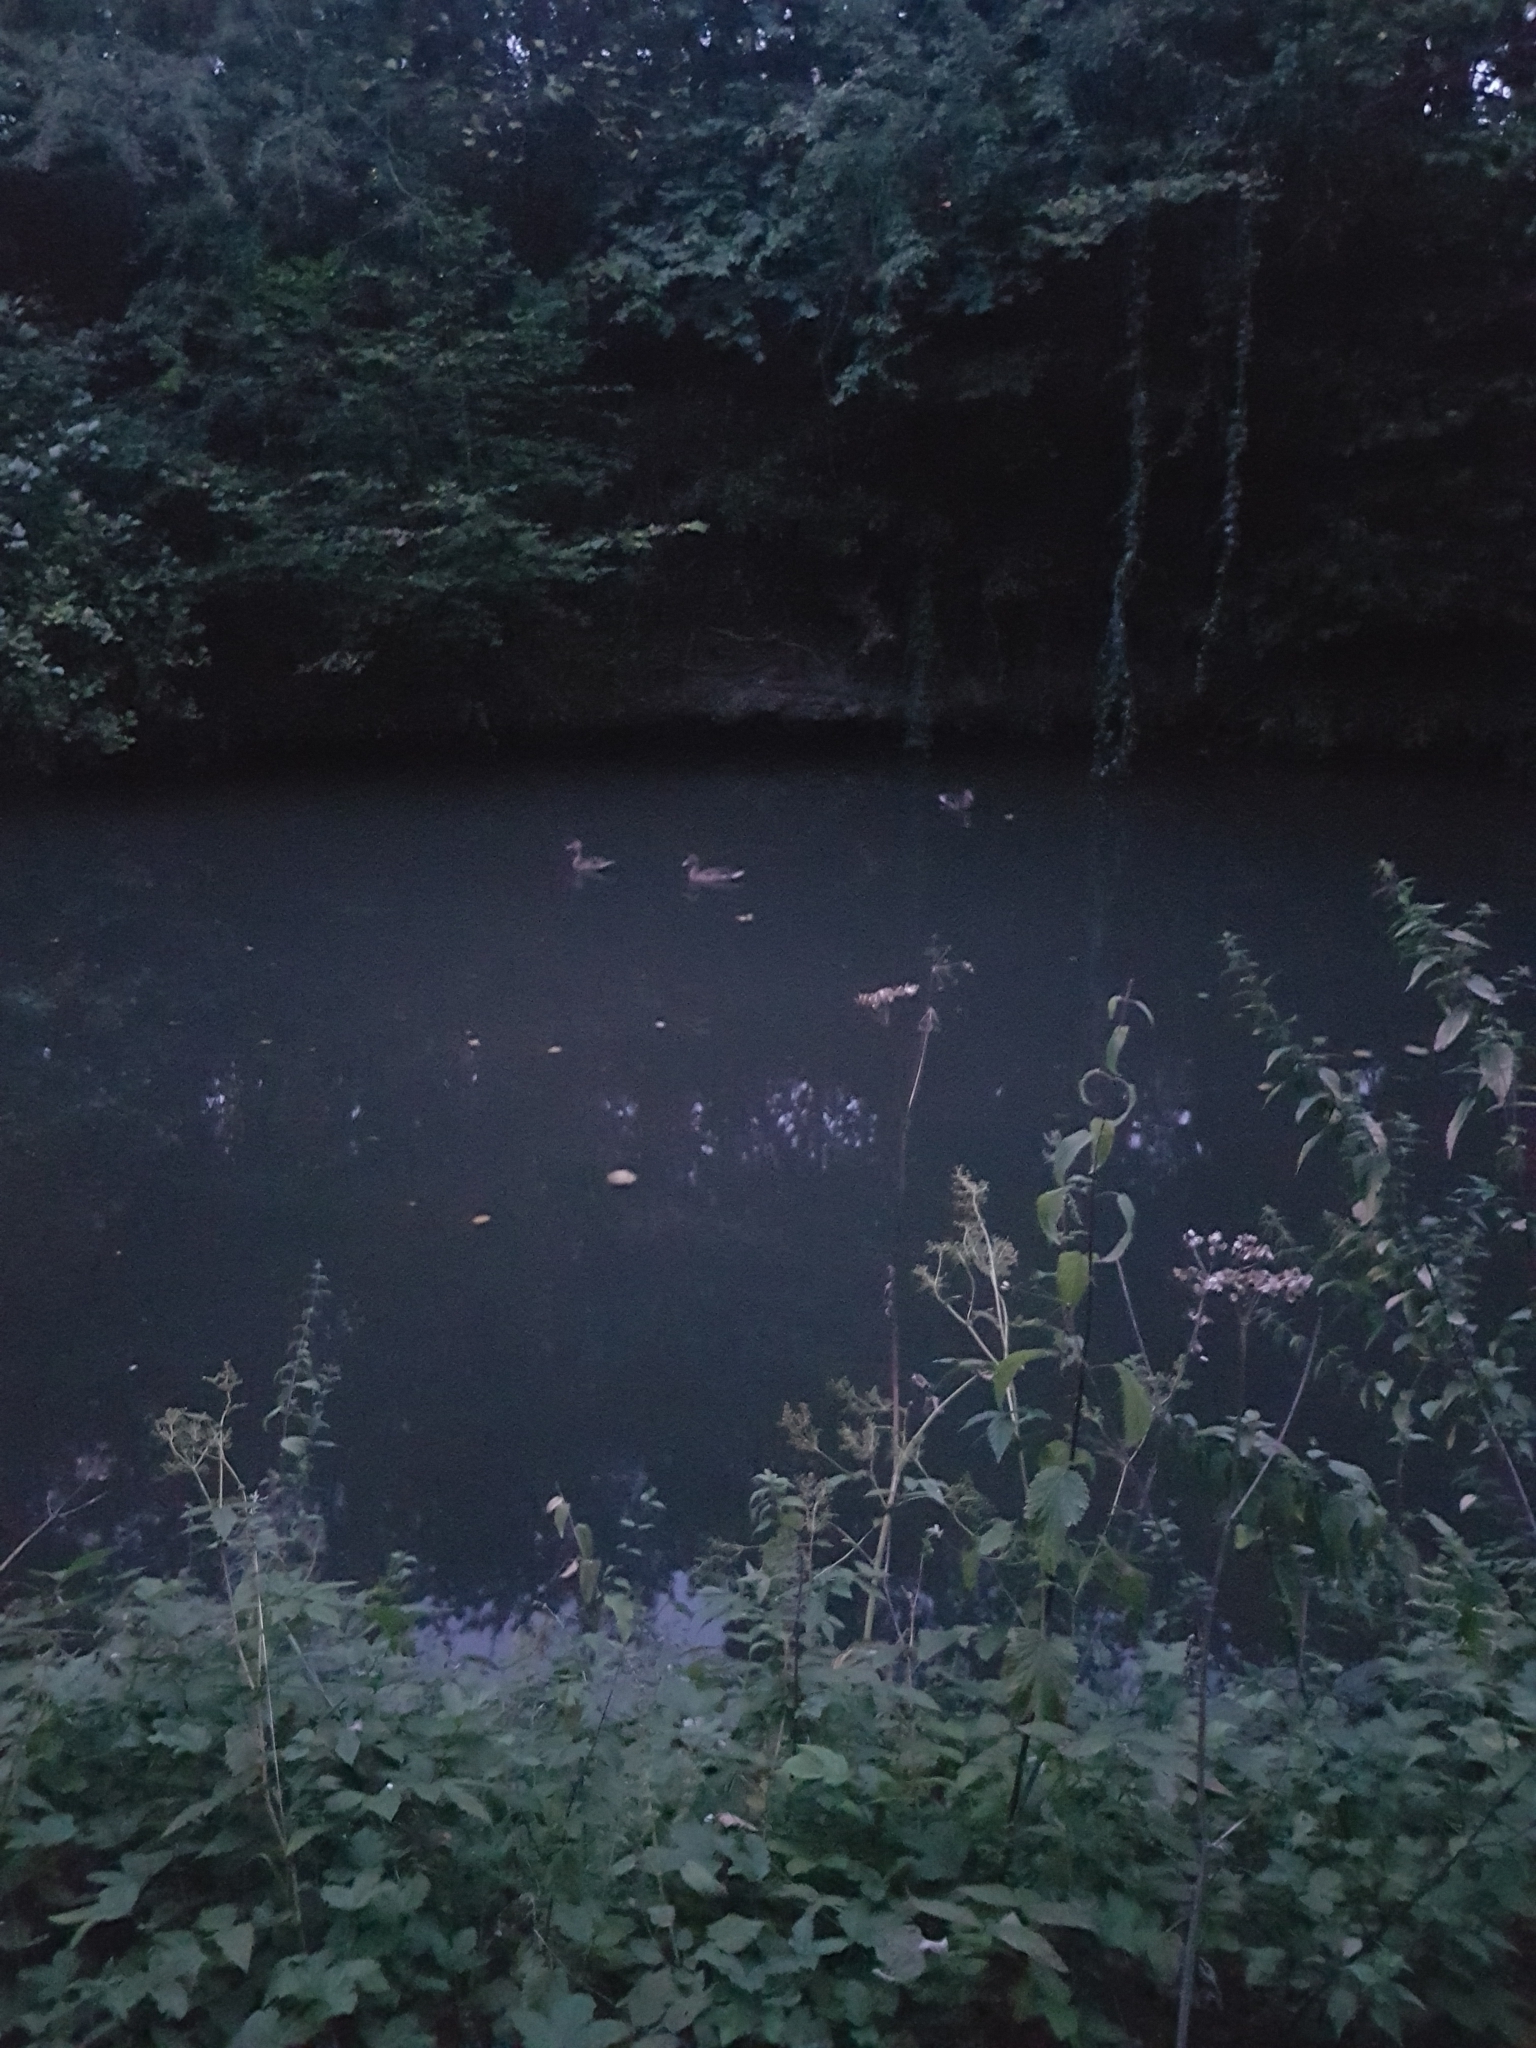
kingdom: Animalia
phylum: Chordata
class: Aves
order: Anseriformes
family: Anatidae
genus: Anas
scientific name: Anas platyrhynchos
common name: Mallard
